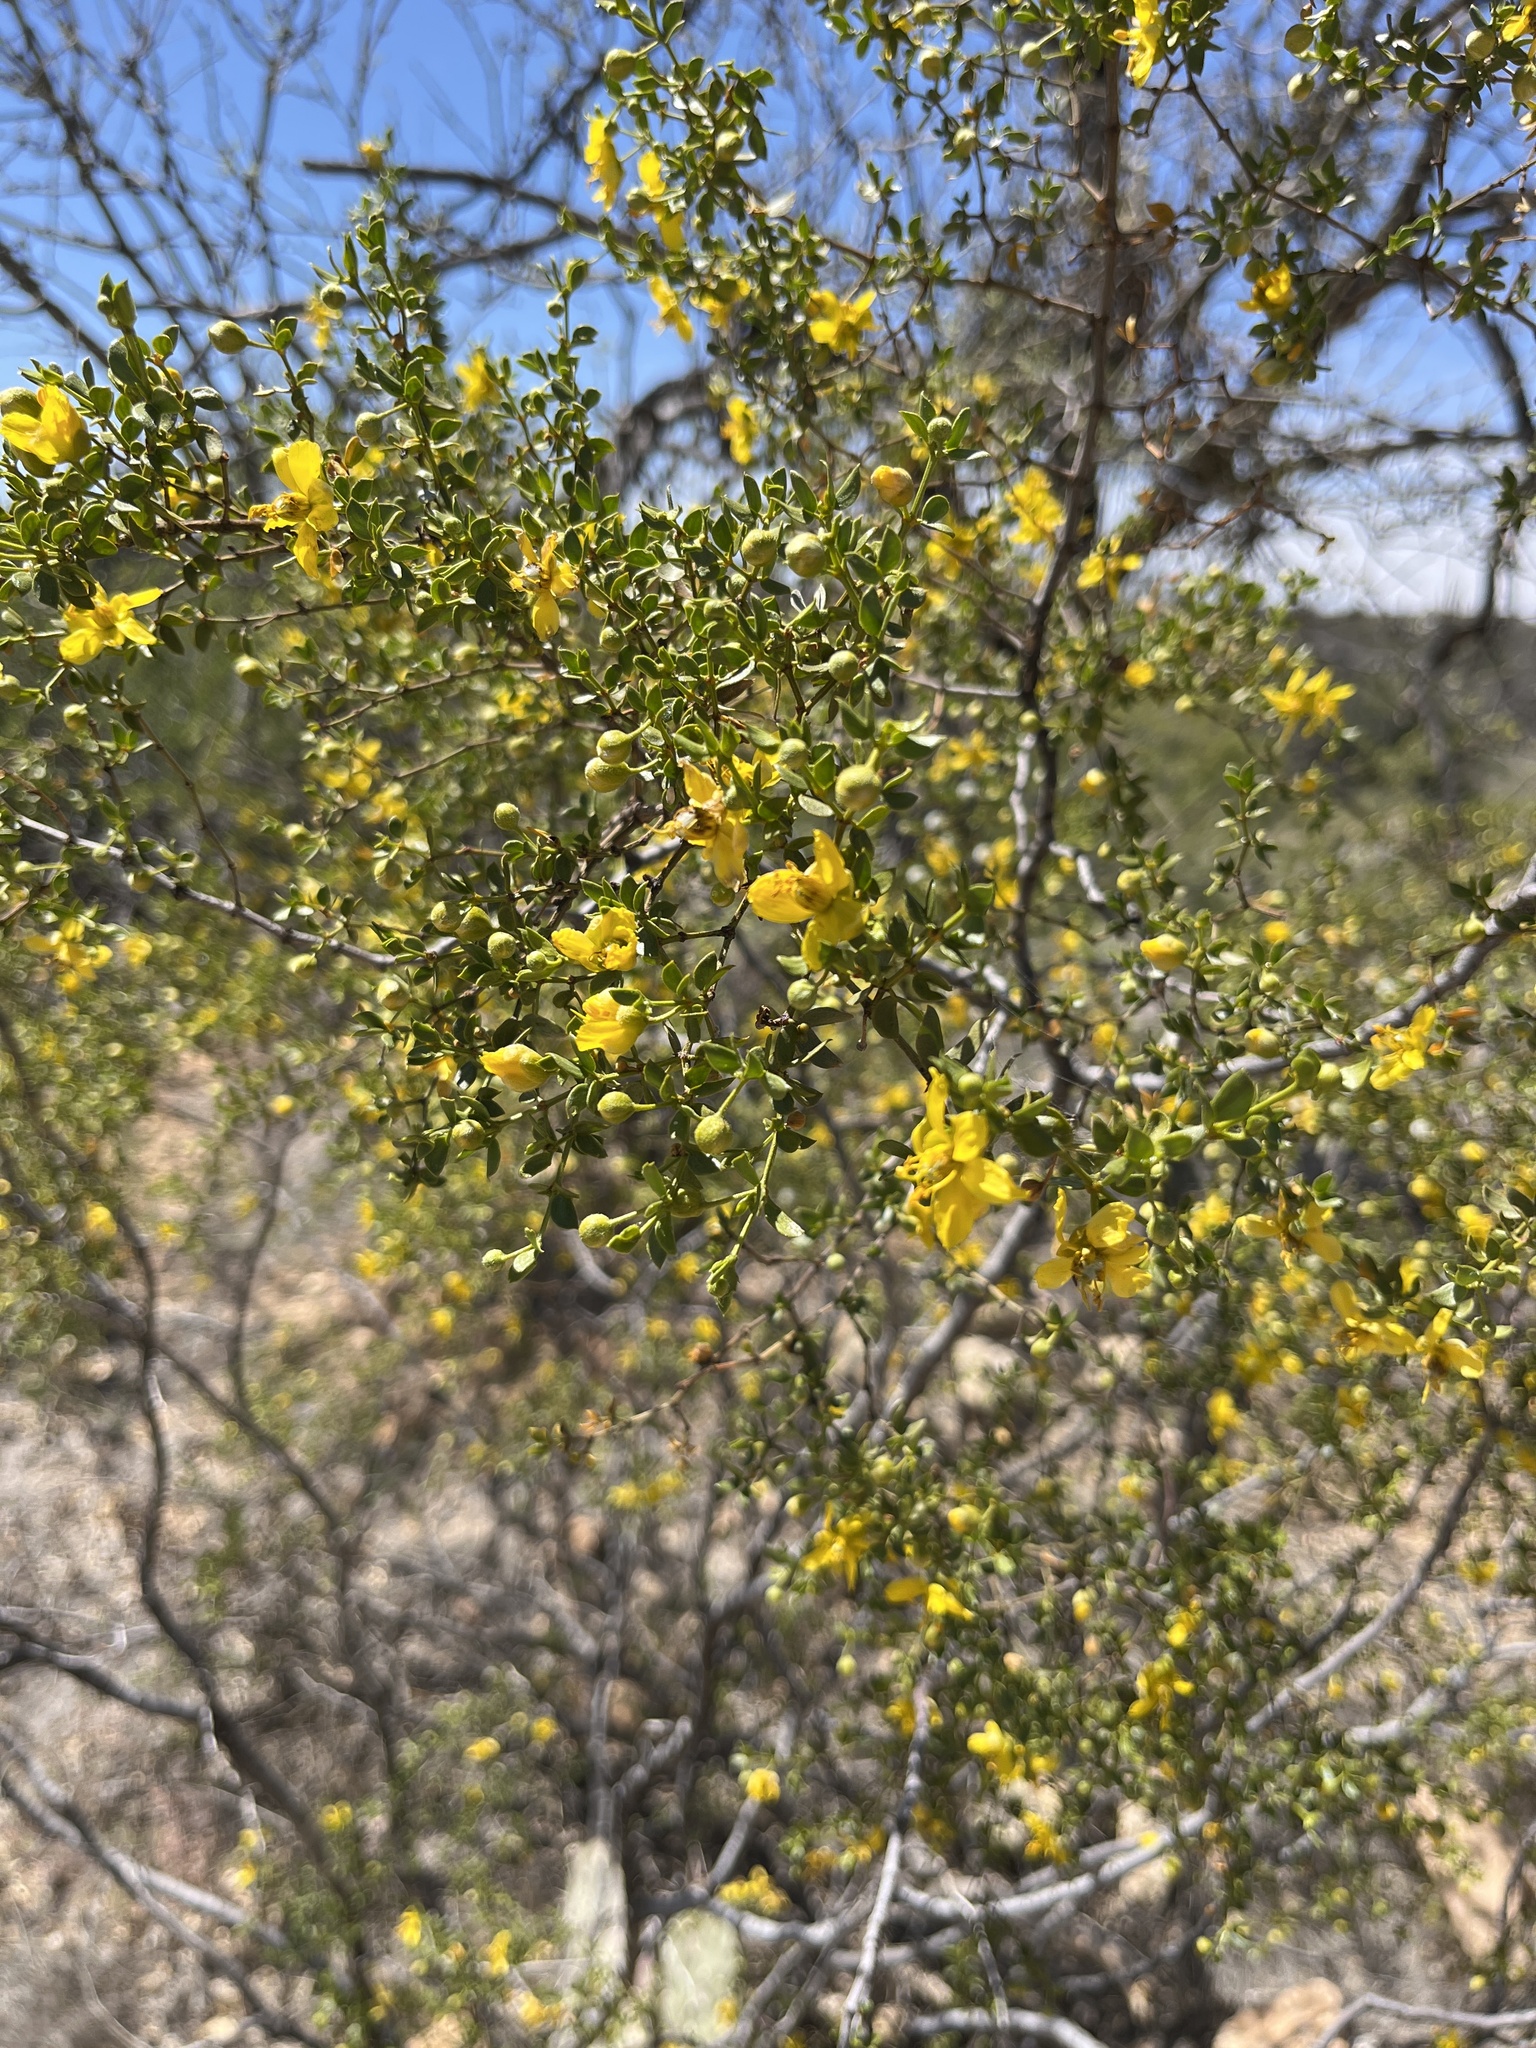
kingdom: Plantae
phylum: Tracheophyta
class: Magnoliopsida
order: Zygophyllales
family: Zygophyllaceae
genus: Larrea
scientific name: Larrea tridentata
